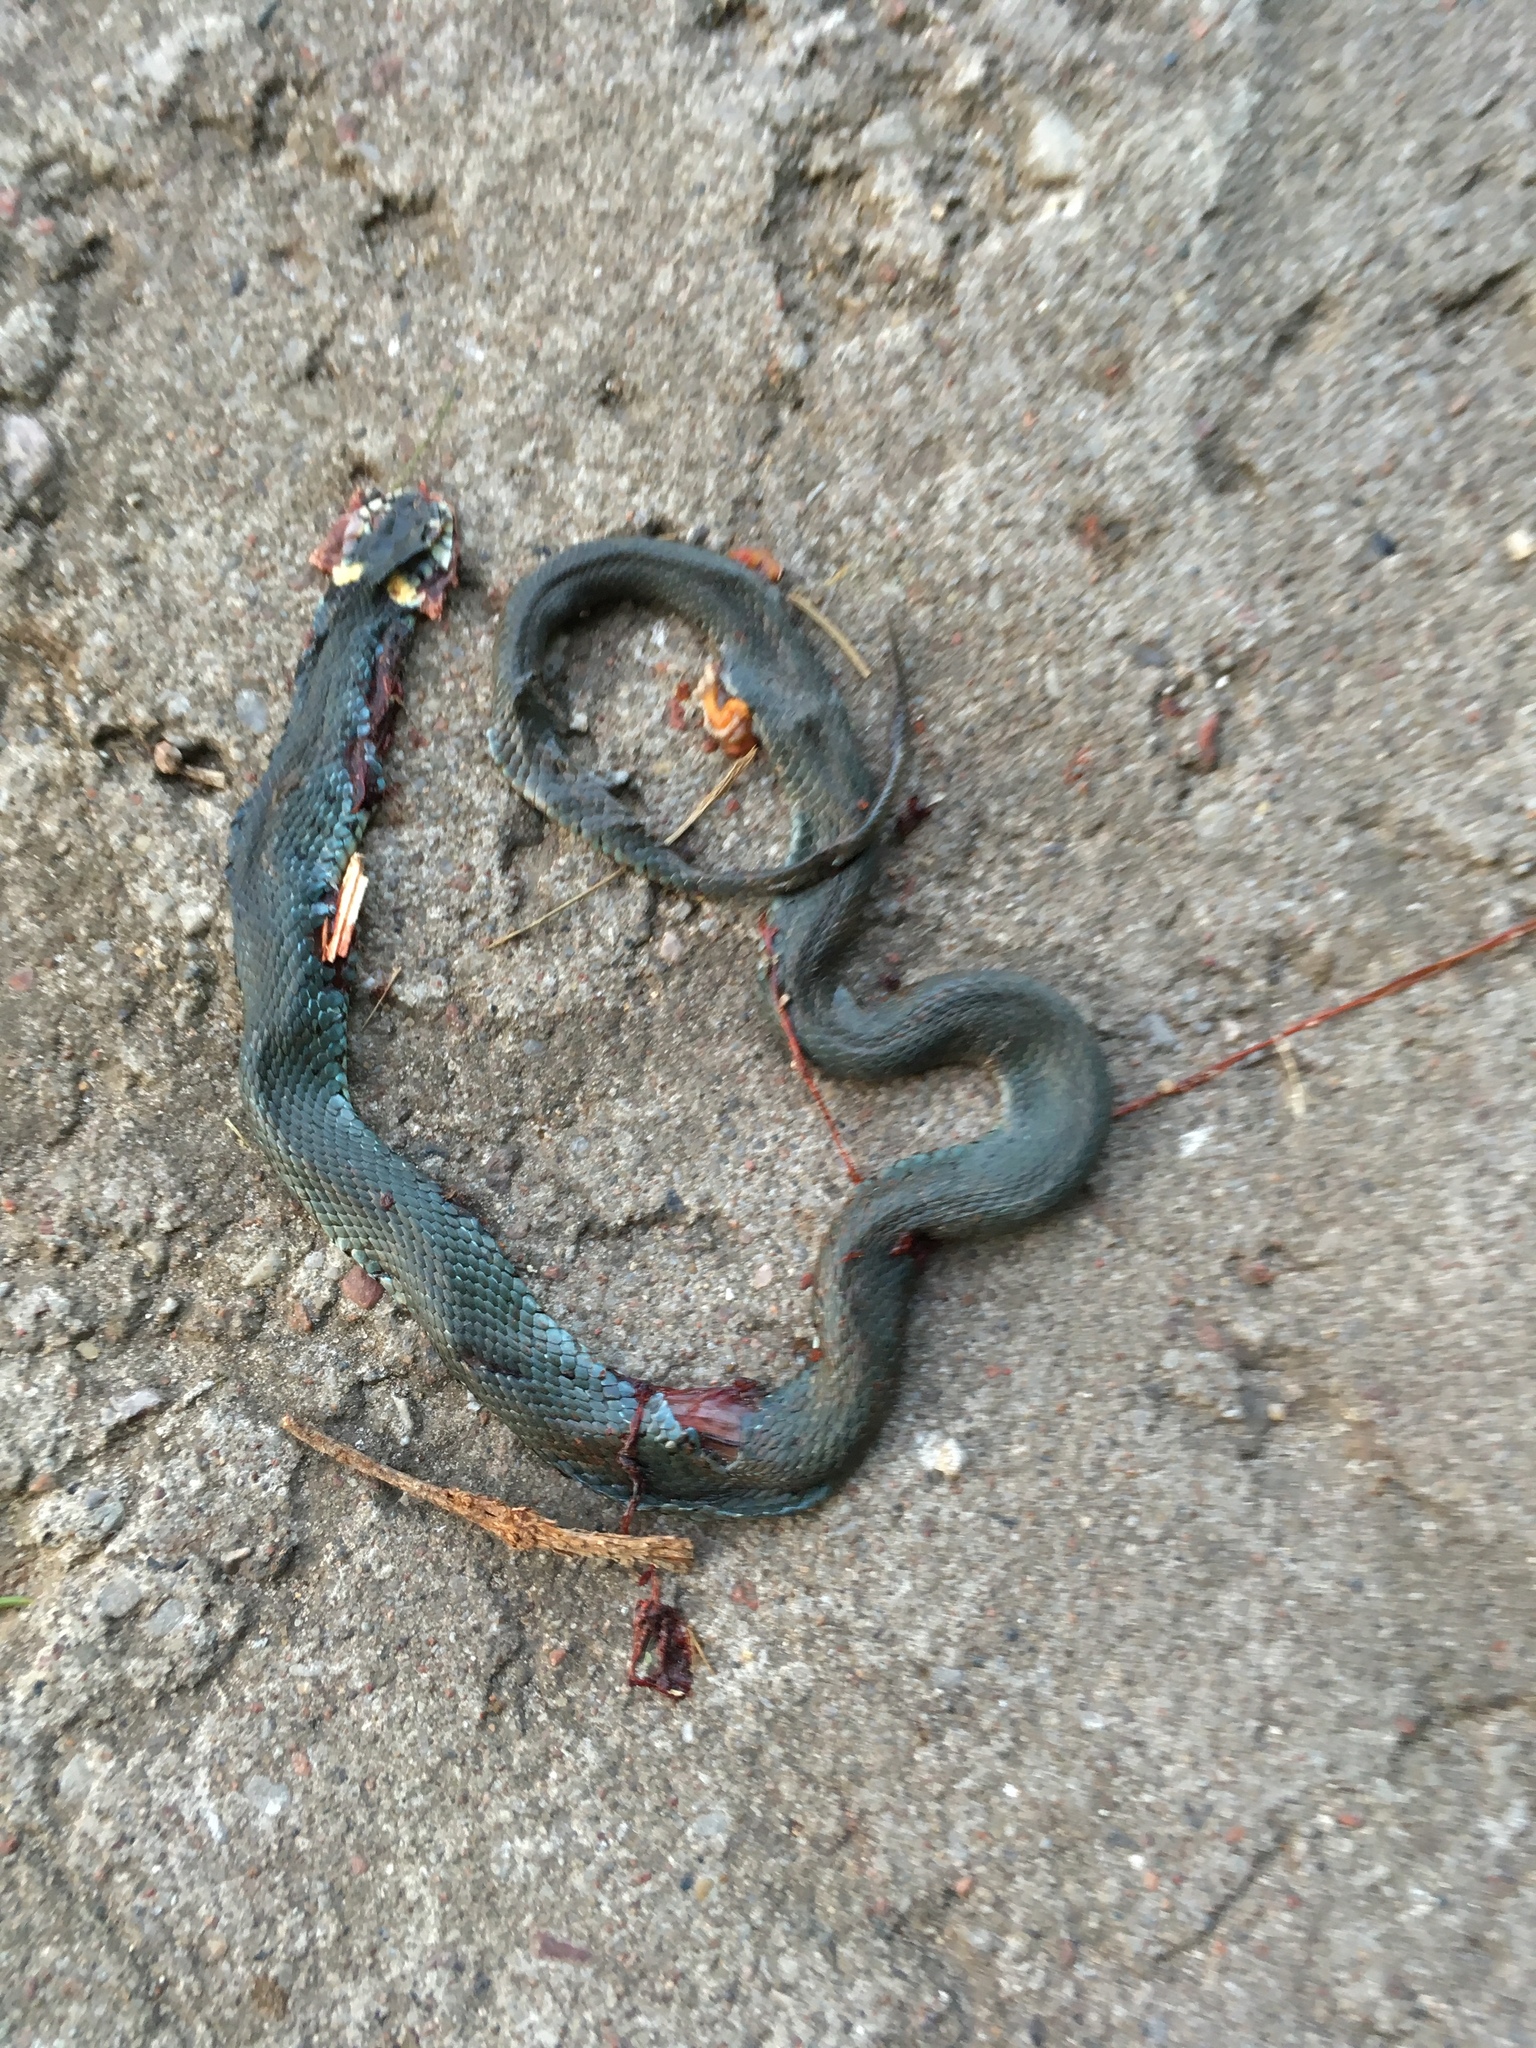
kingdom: Animalia
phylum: Chordata
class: Squamata
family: Colubridae
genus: Natrix
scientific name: Natrix natrix
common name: Grass snake
